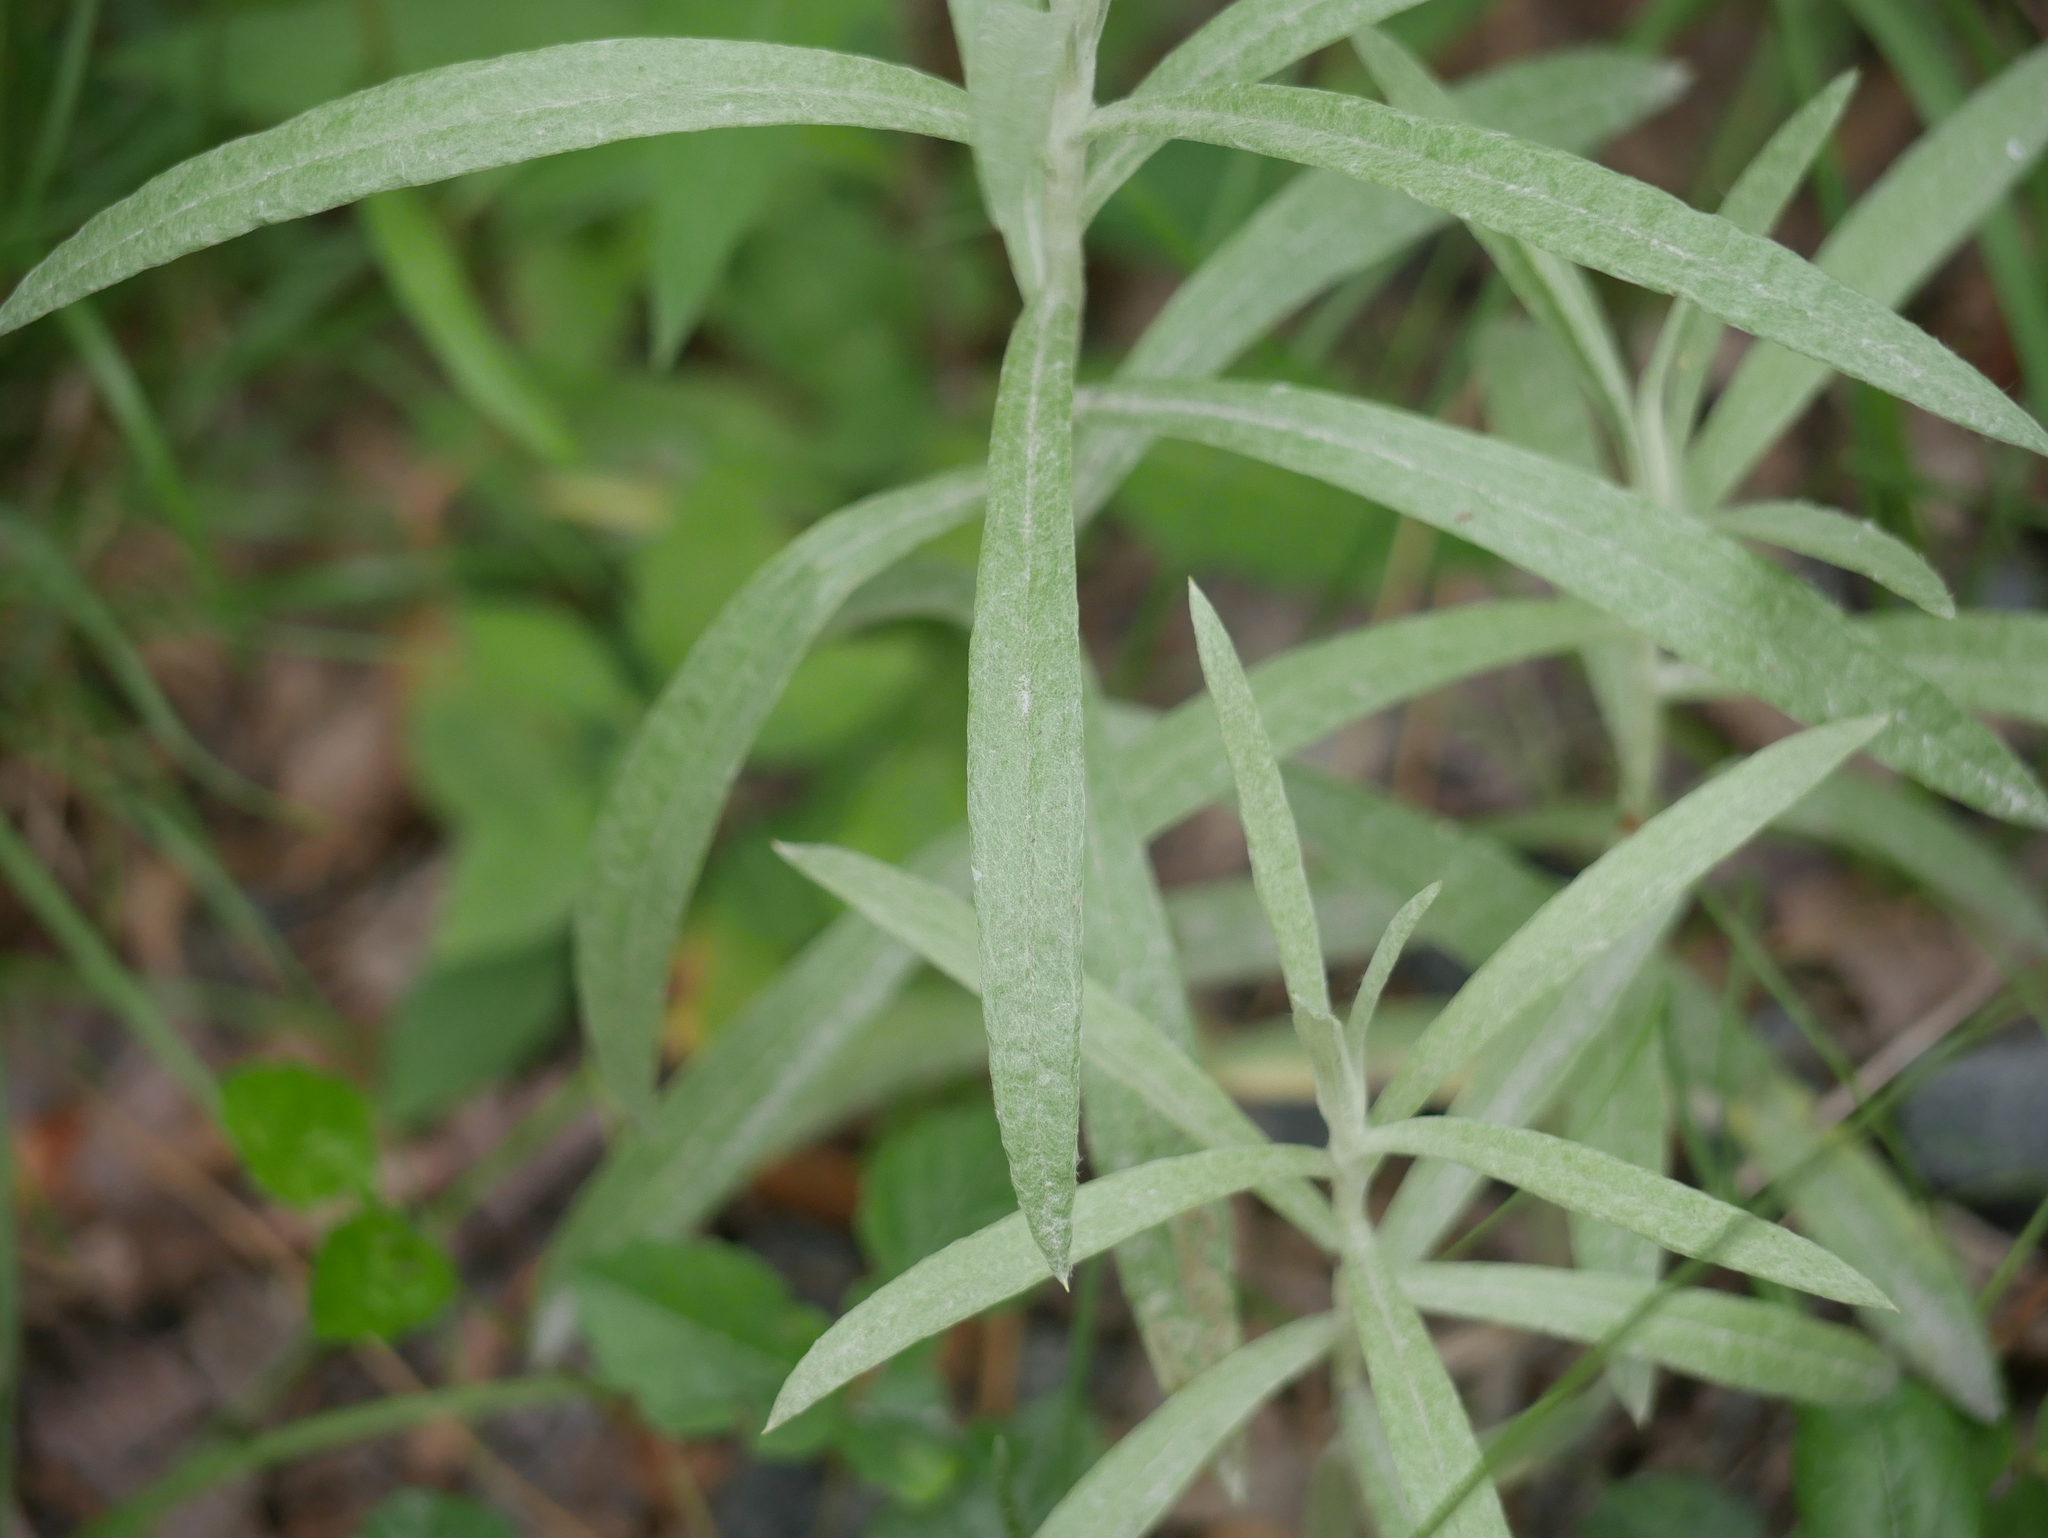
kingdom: Plantae
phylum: Tracheophyta
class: Magnoliopsida
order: Asterales
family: Asteraceae
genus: Anaphalis
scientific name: Anaphalis margaritacea
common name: Pearly everlasting
